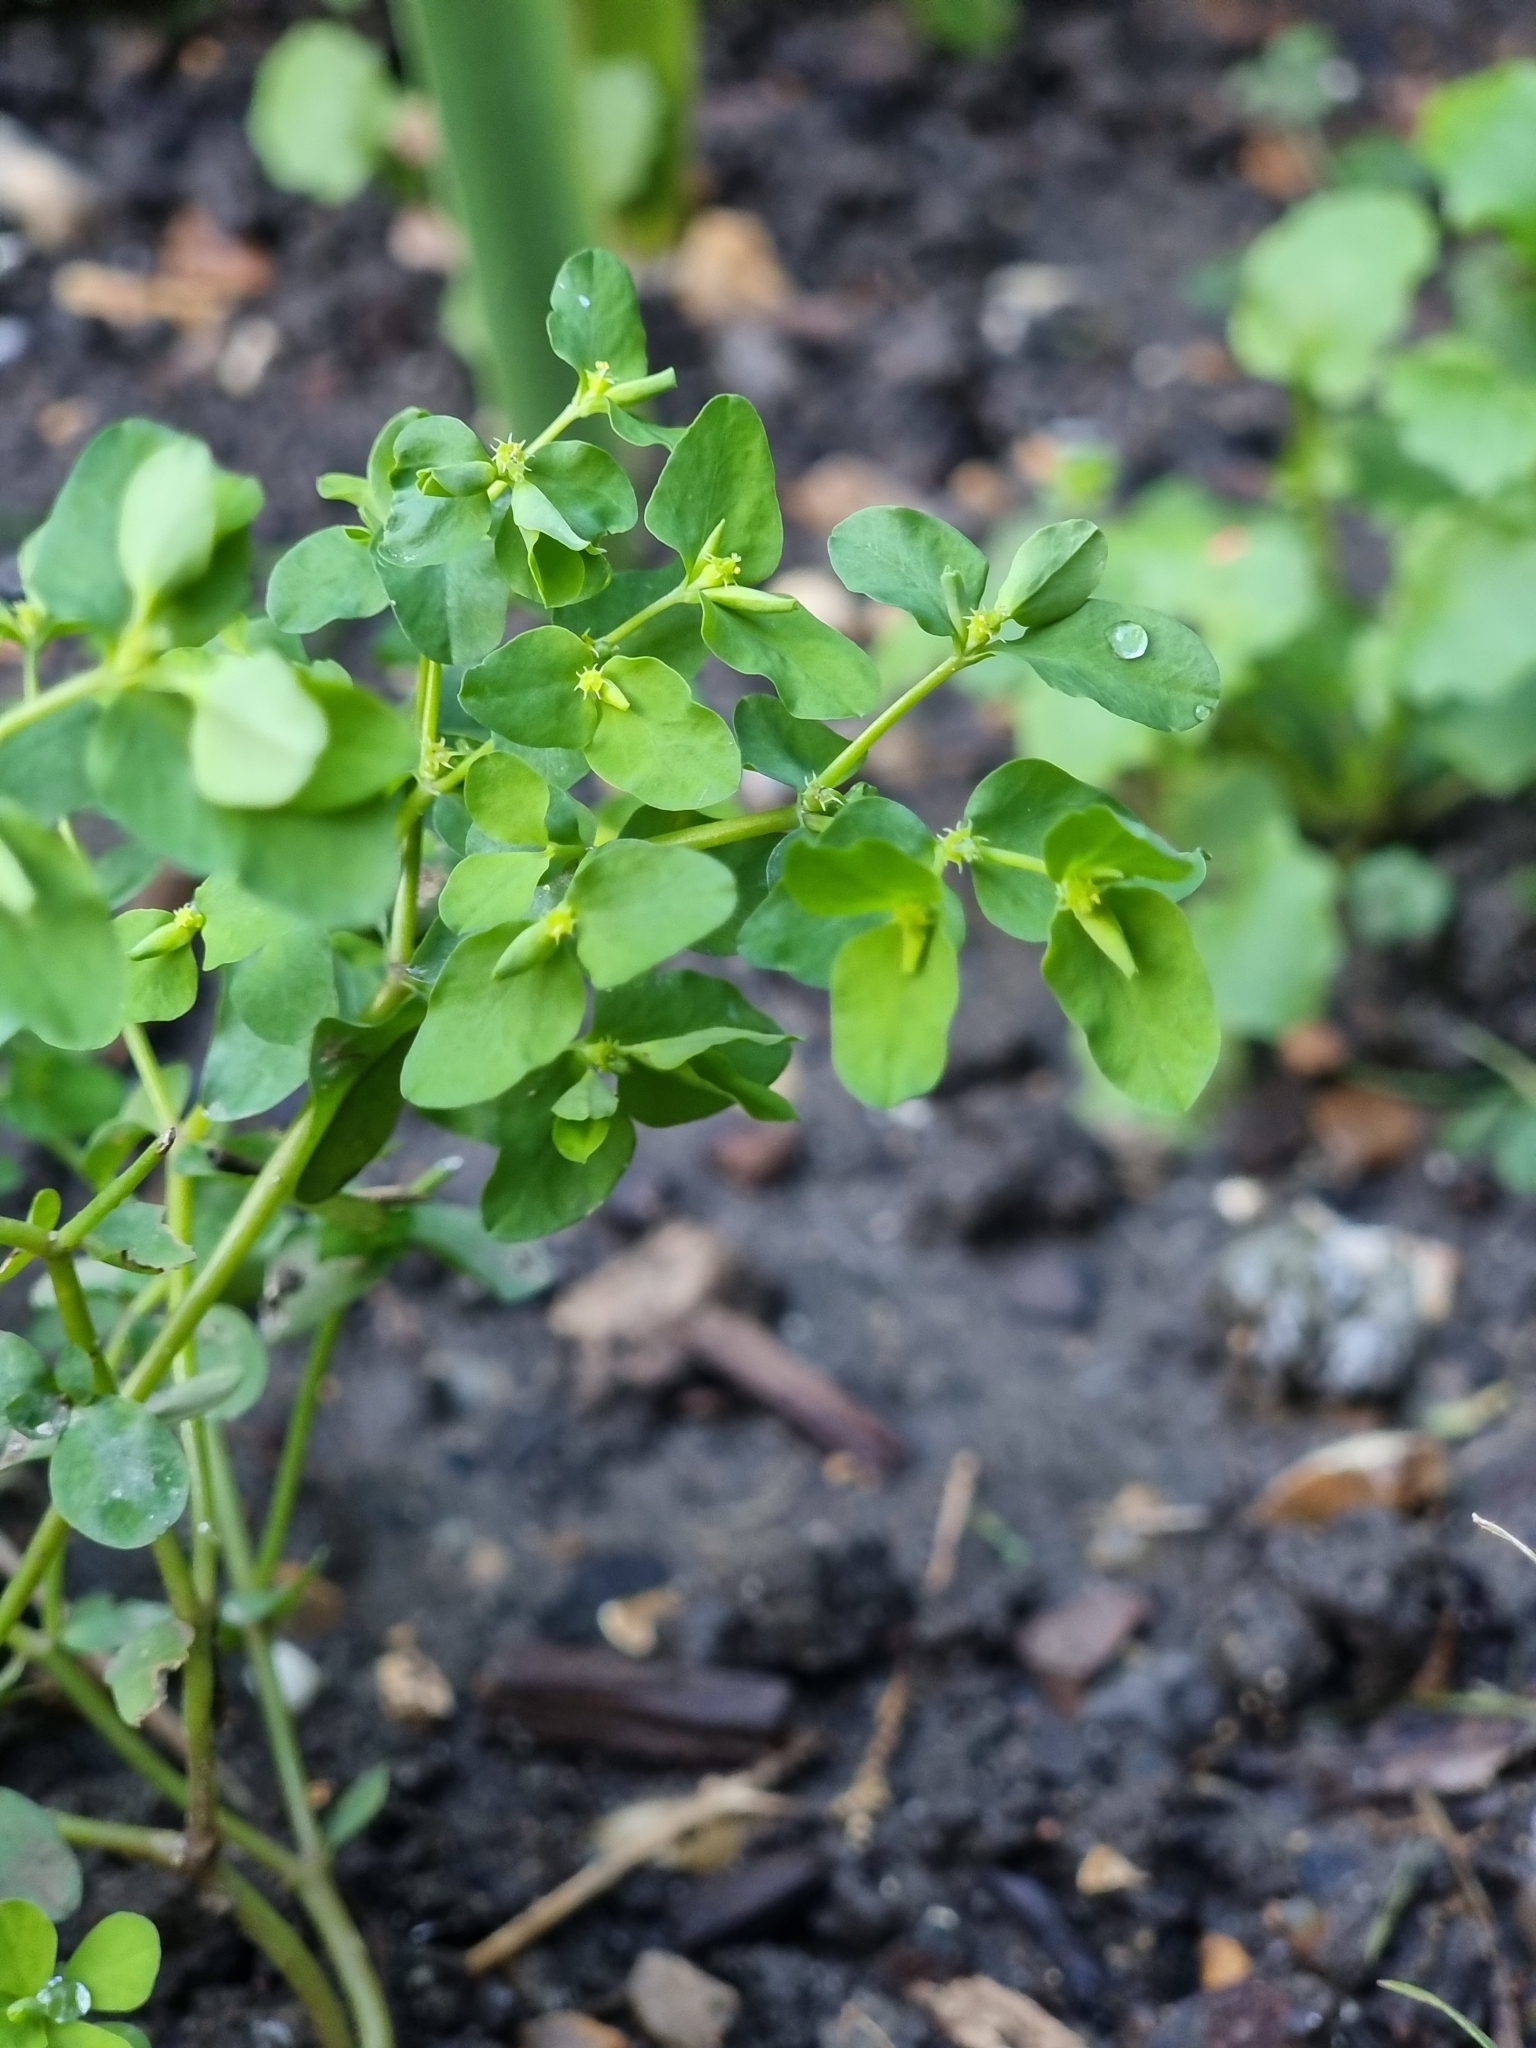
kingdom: Plantae
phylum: Tracheophyta
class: Magnoliopsida
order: Malpighiales
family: Euphorbiaceae
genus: Euphorbia
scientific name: Euphorbia peplus
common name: Petty spurge
